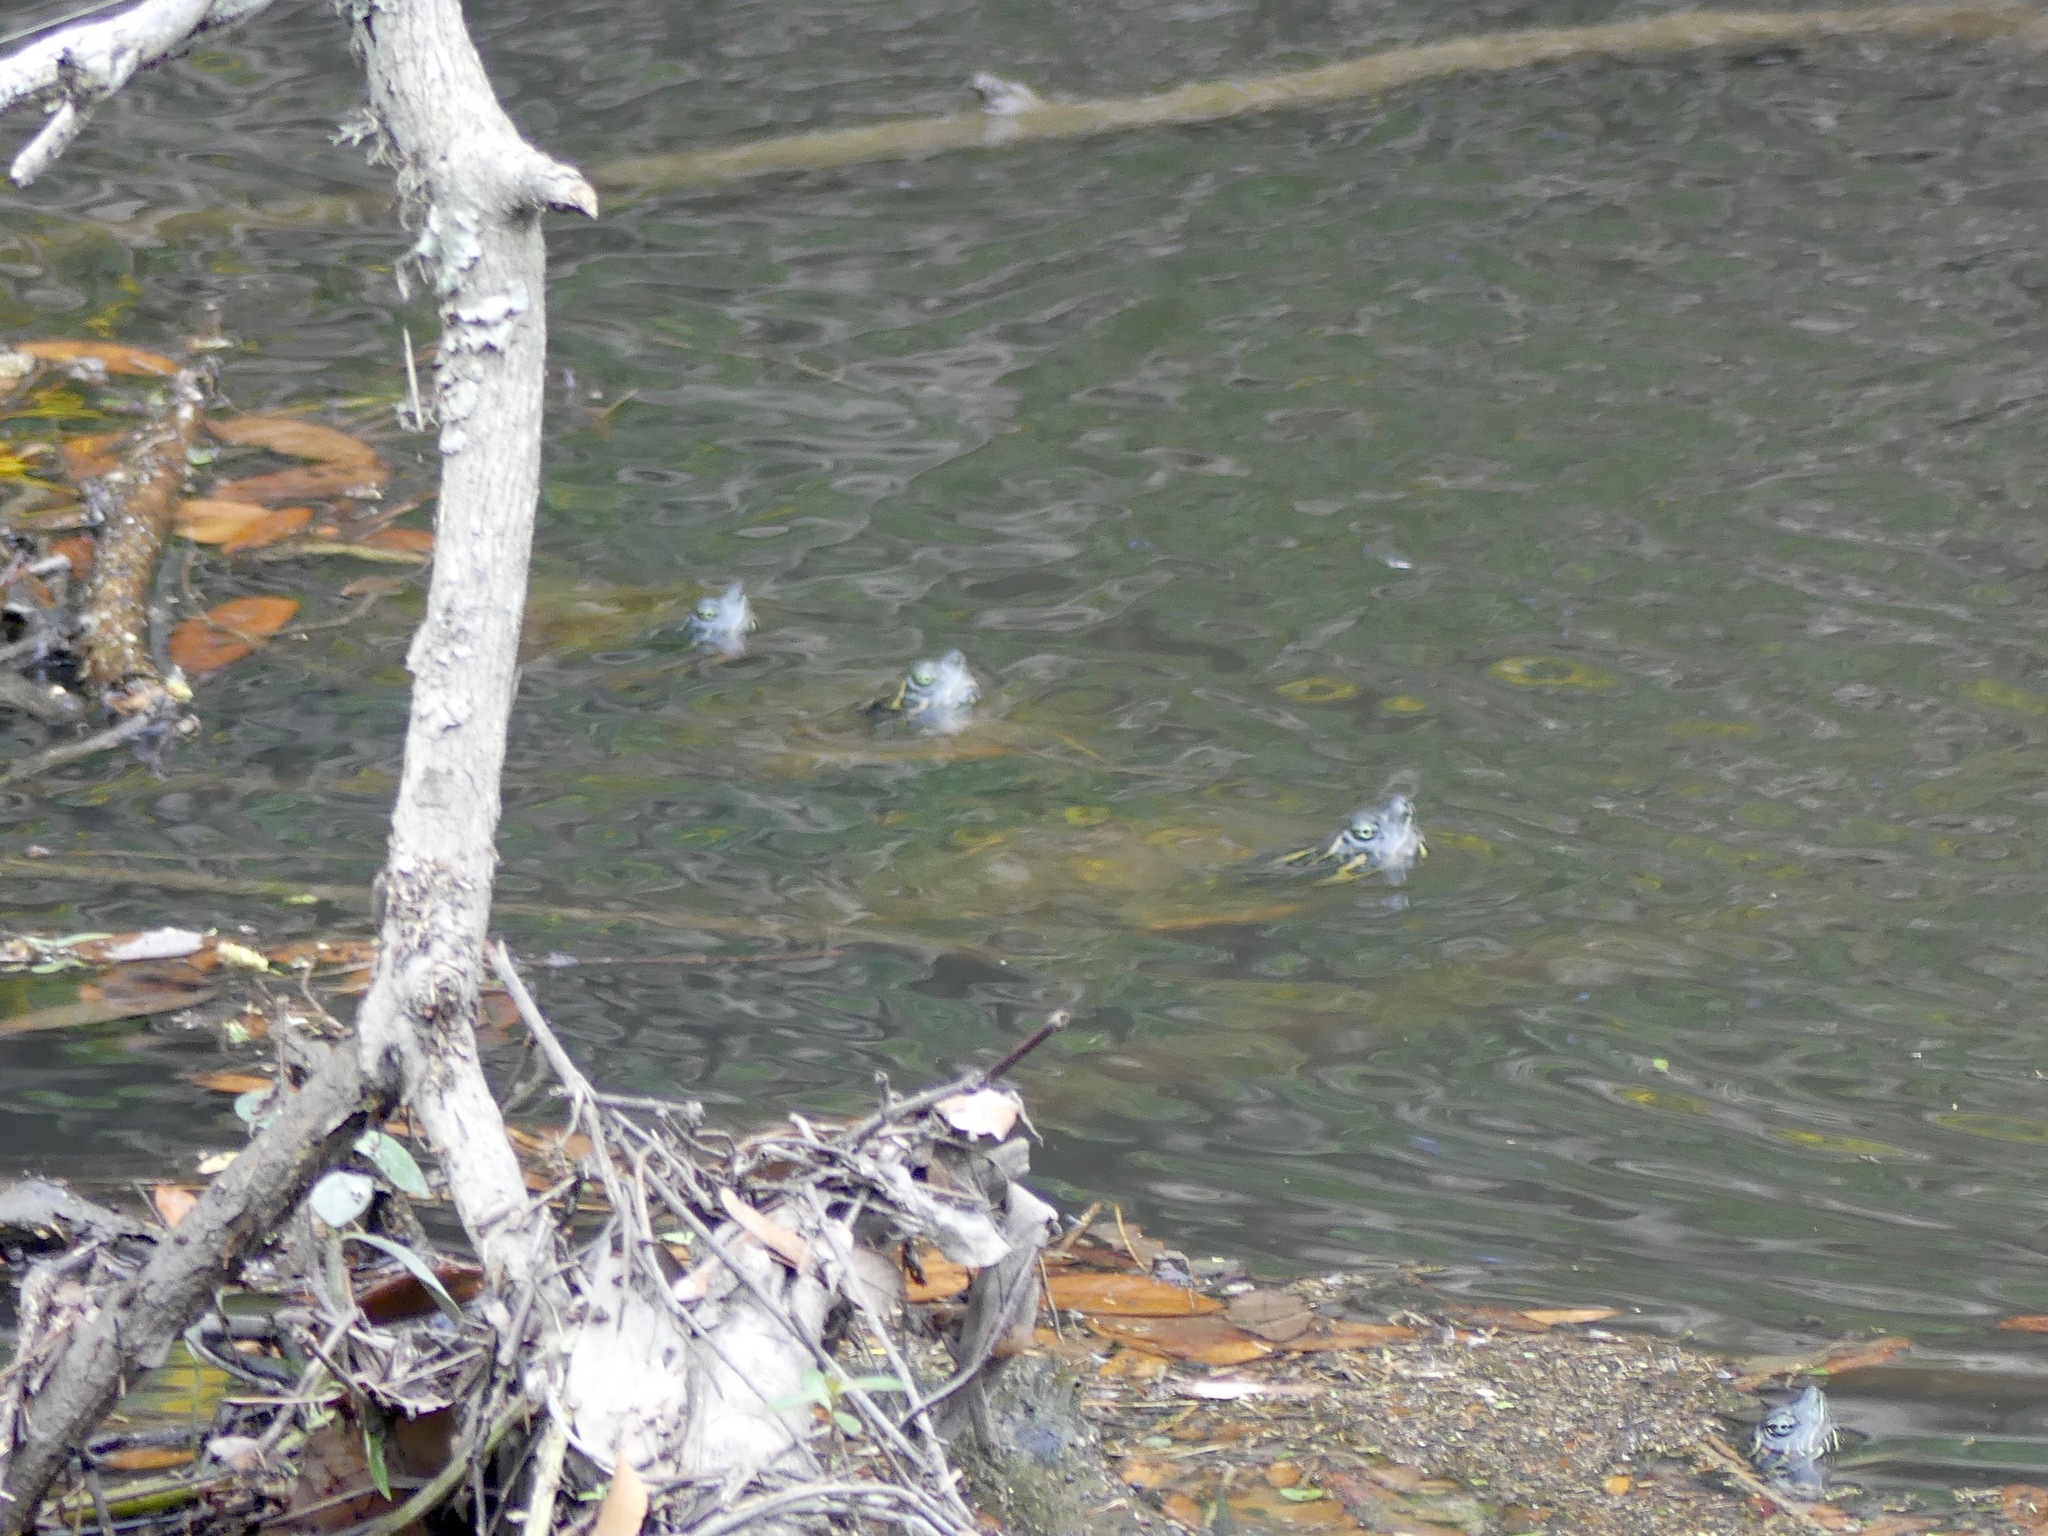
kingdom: Animalia
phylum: Chordata
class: Testudines
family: Emydidae
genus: Pseudemys
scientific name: Pseudemys concinna
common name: Eastern river cooter
